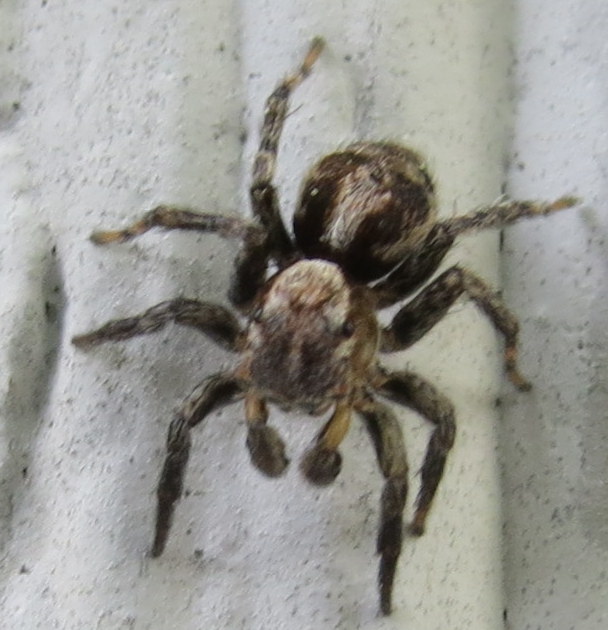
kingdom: Animalia
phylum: Arthropoda
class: Arachnida
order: Araneae
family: Salticidae
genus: Naphrys
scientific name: Naphrys pulex
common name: Flea jumping spider
